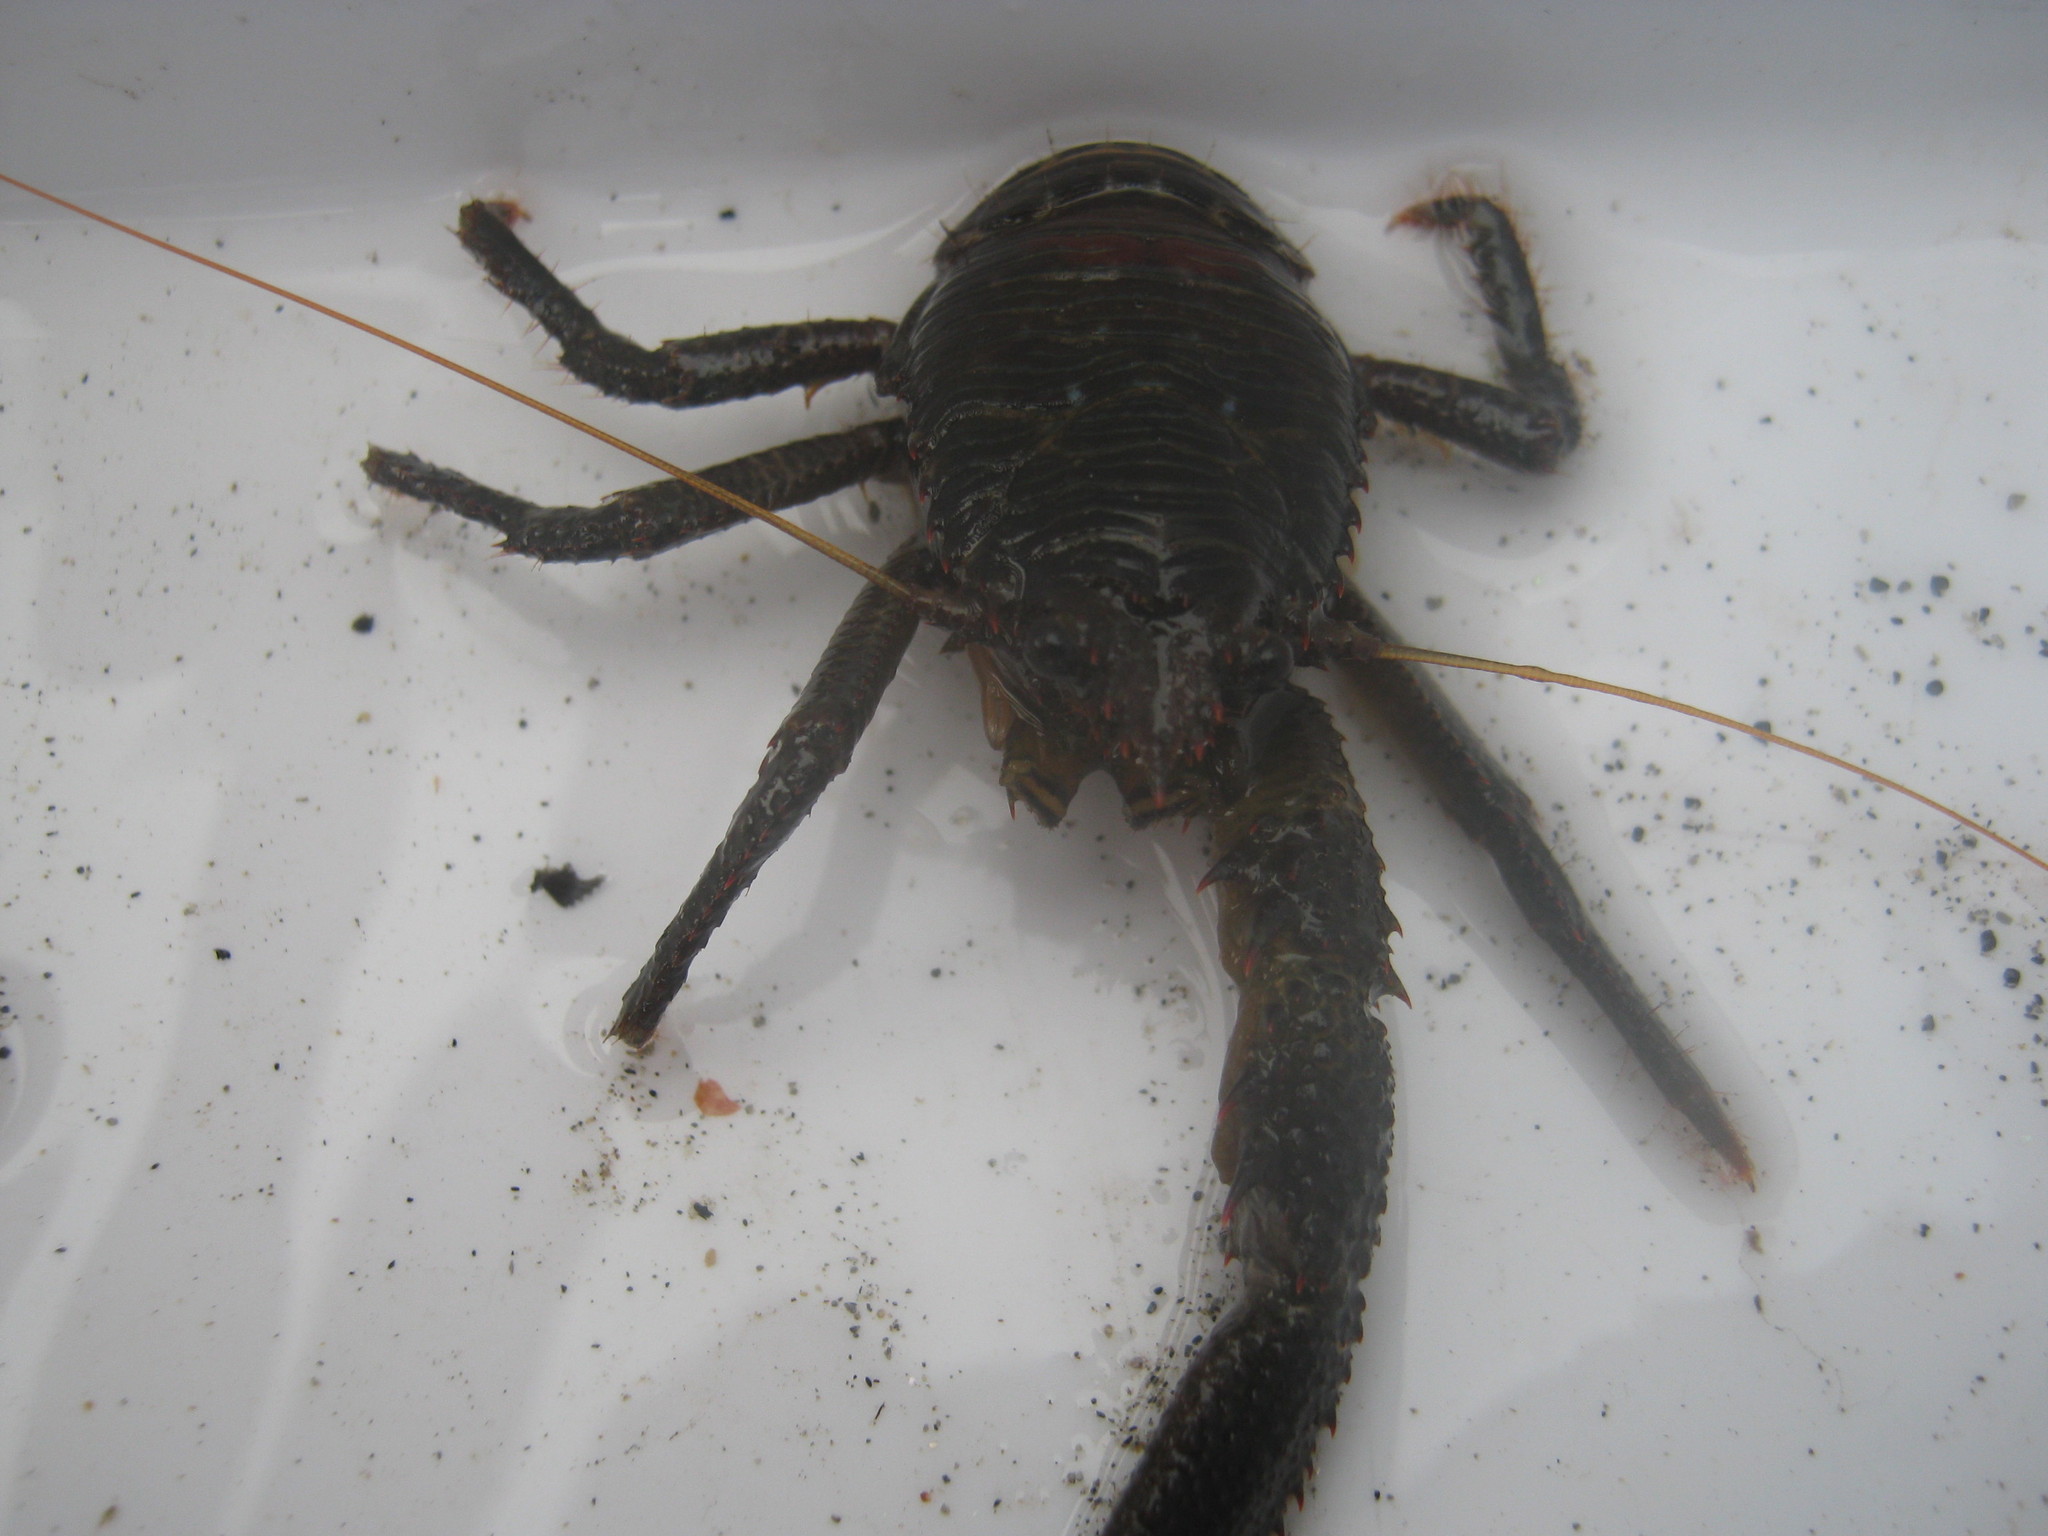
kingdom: Animalia
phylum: Arthropoda
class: Malacostraca
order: Decapoda
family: Galatheidae
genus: Galathea
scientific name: Galathea squamifera
